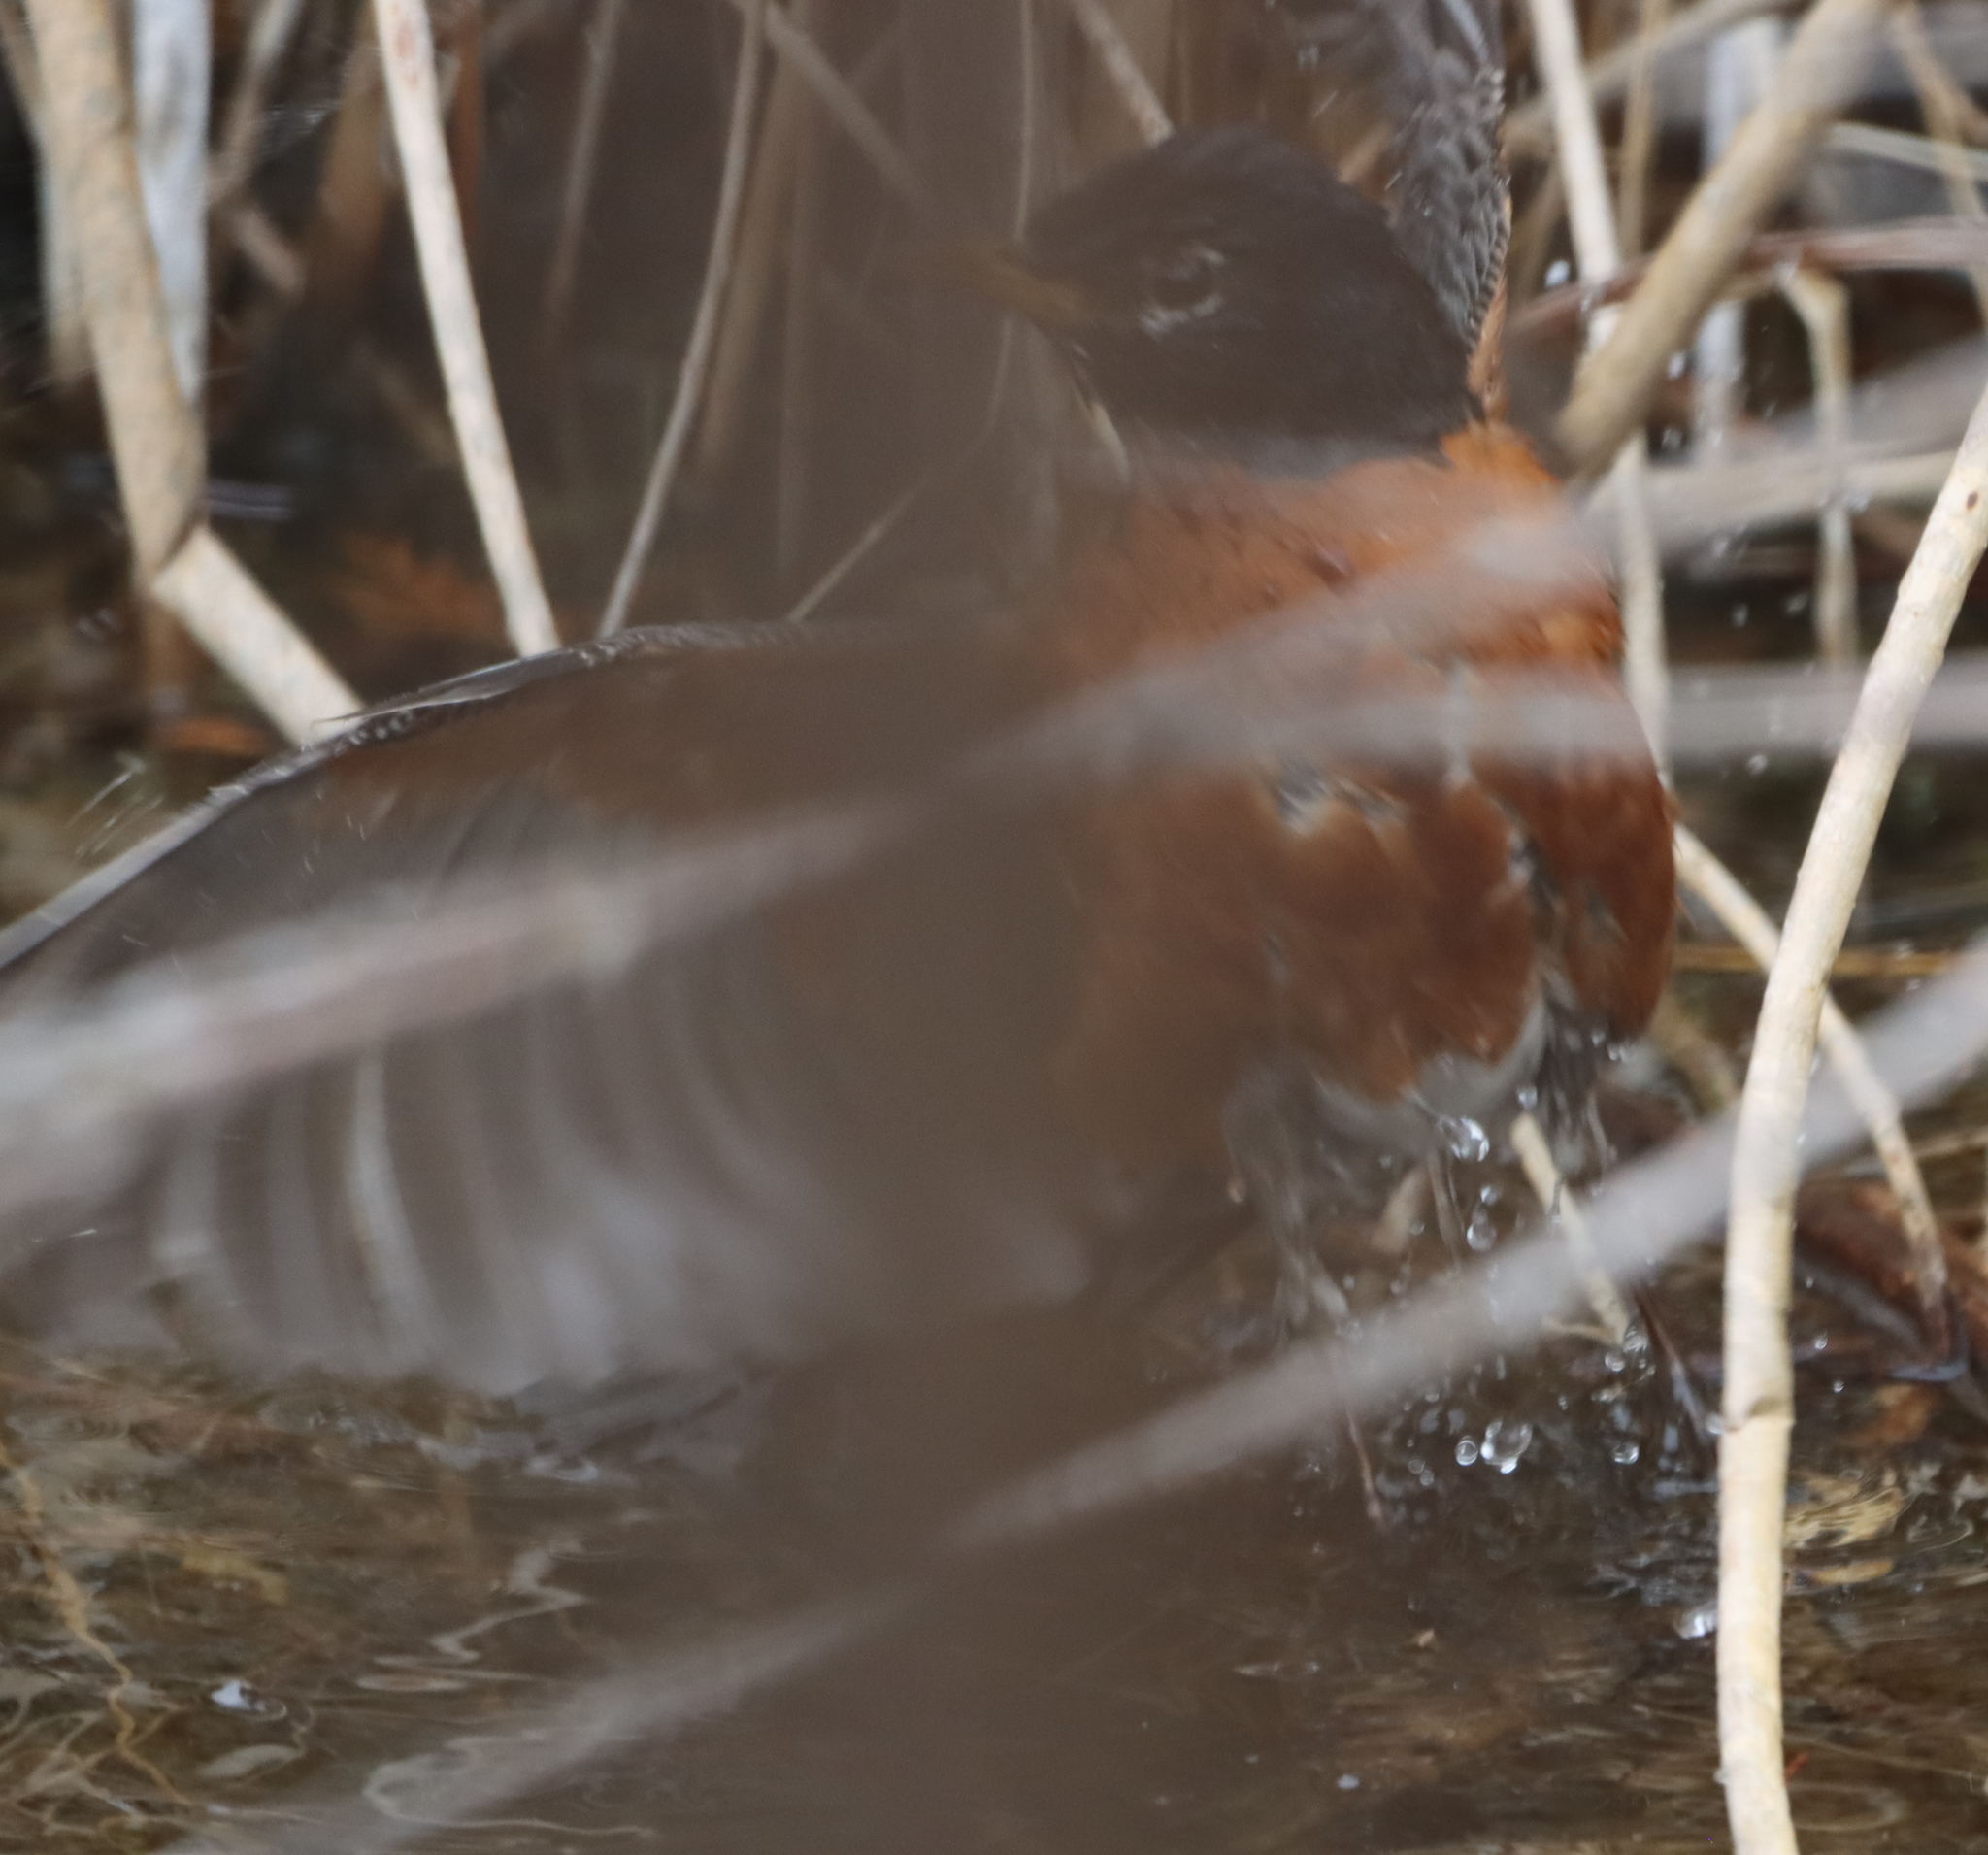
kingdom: Animalia
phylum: Chordata
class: Aves
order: Passeriformes
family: Turdidae
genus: Turdus
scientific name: Turdus migratorius
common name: American robin
